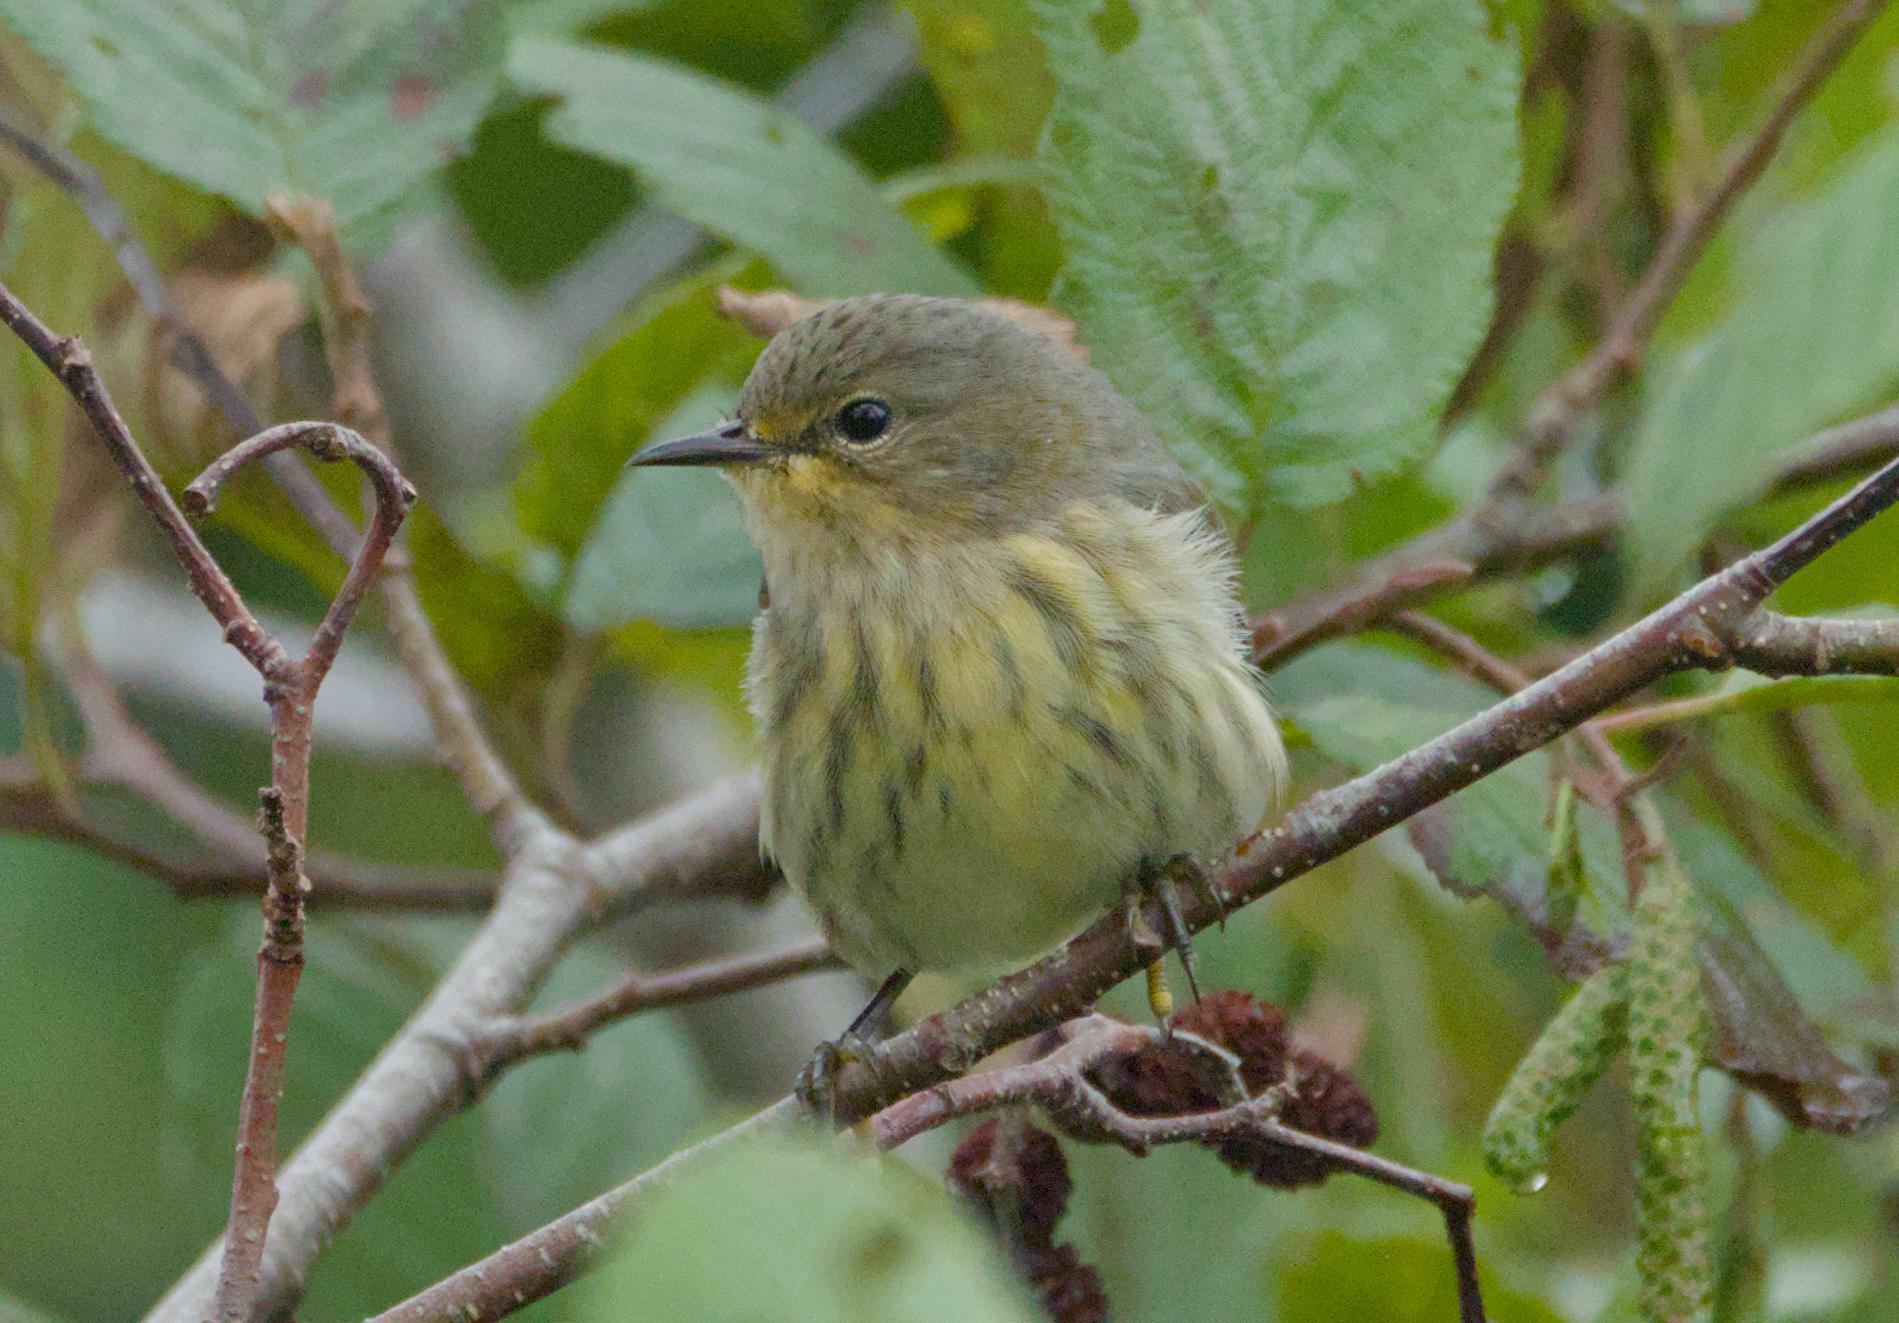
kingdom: Animalia
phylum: Chordata
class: Aves
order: Passeriformes
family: Parulidae
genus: Setophaga
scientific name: Setophaga tigrina
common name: Cape may warbler
